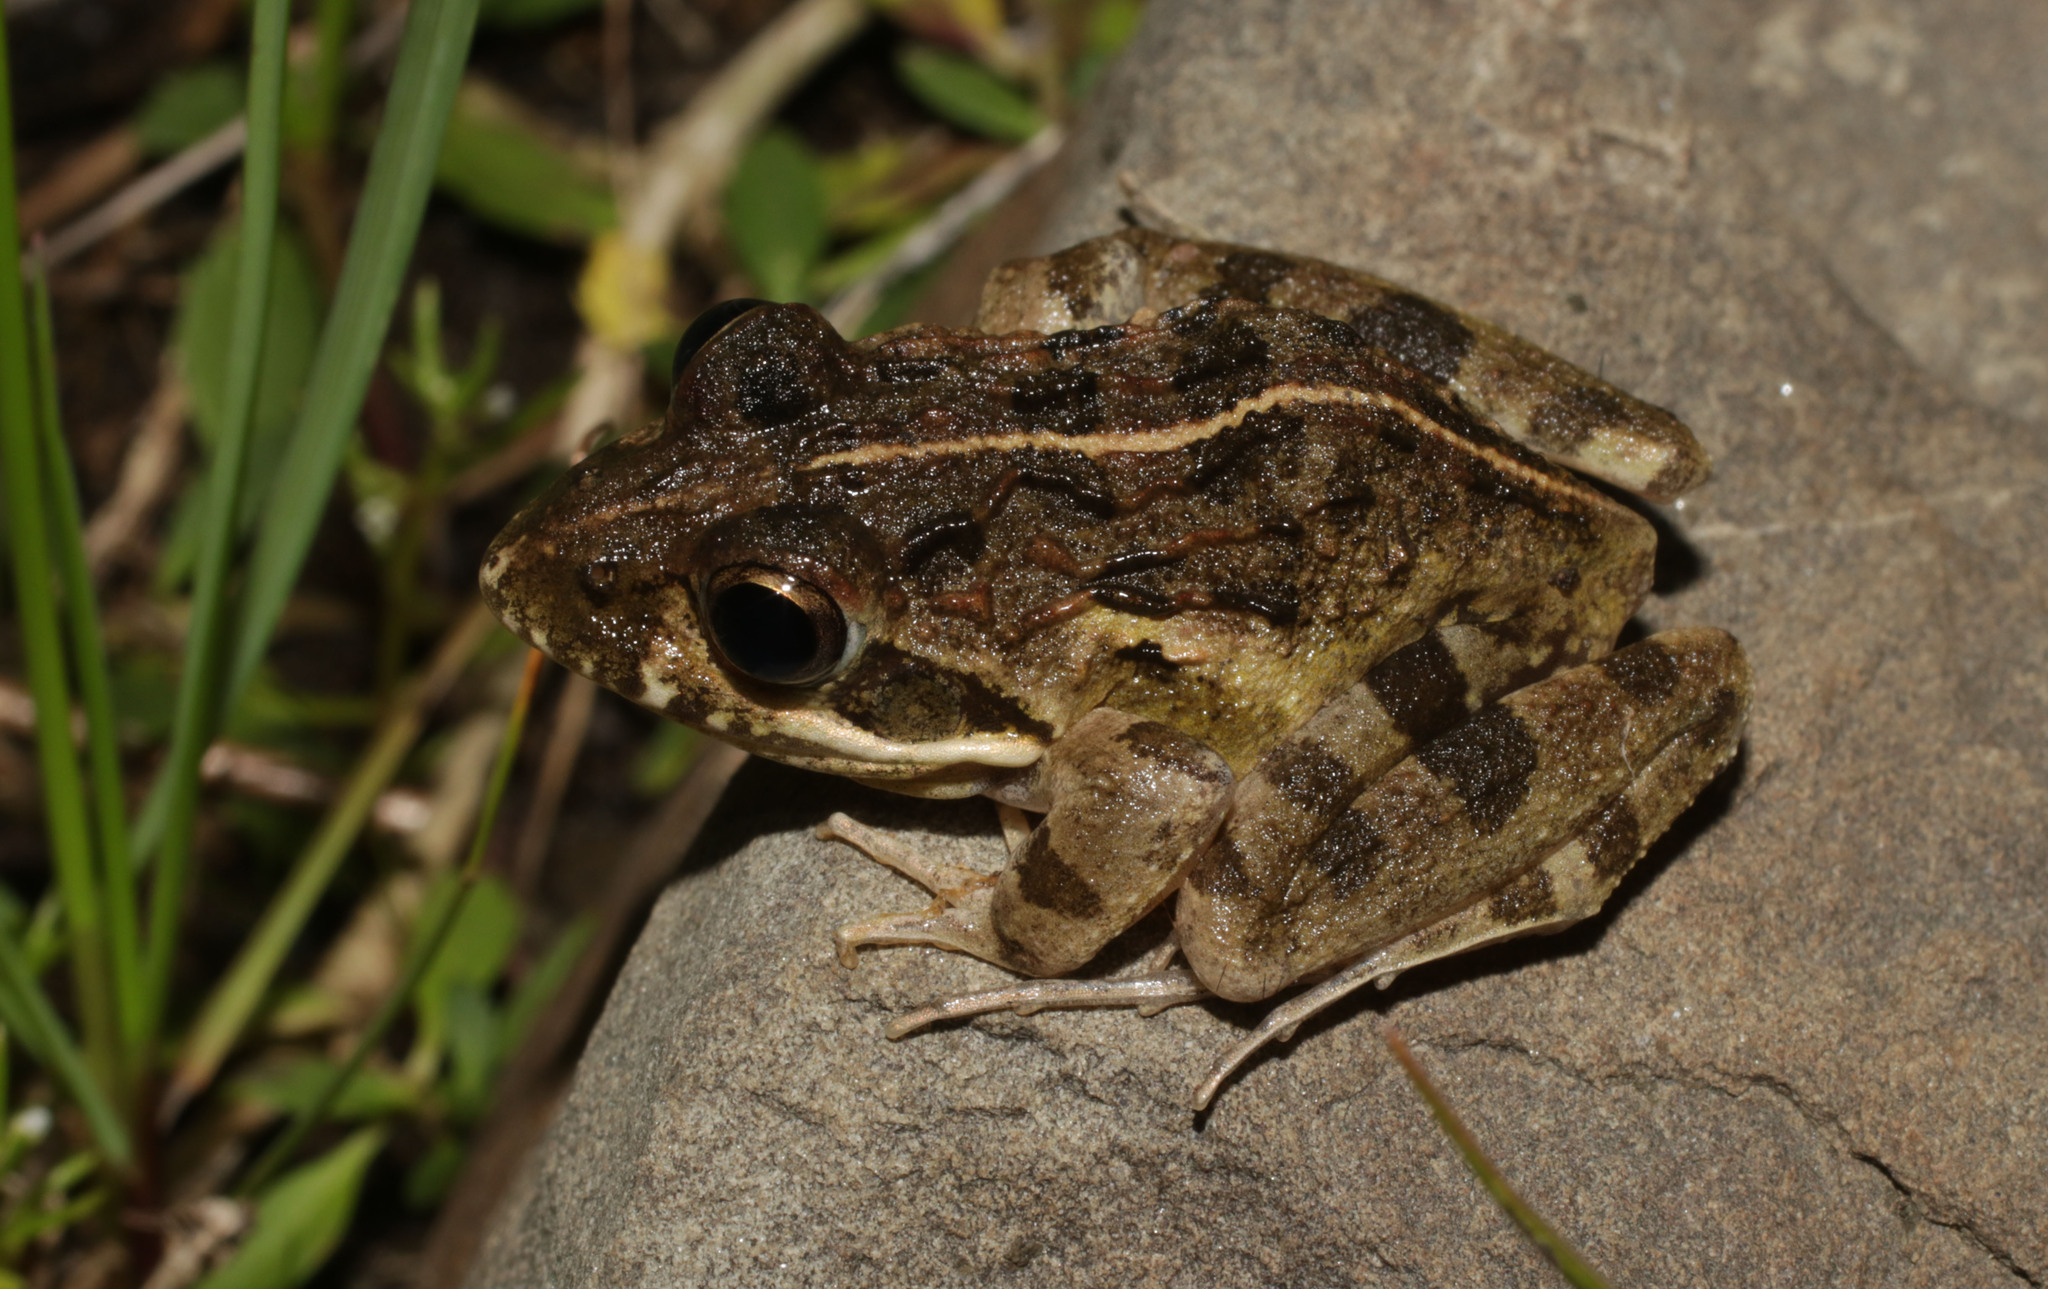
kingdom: Animalia
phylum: Chordata
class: Amphibia
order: Anura
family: Pyxicephalidae
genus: Strongylopus
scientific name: Strongylopus grayii
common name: Gray's stream frog
